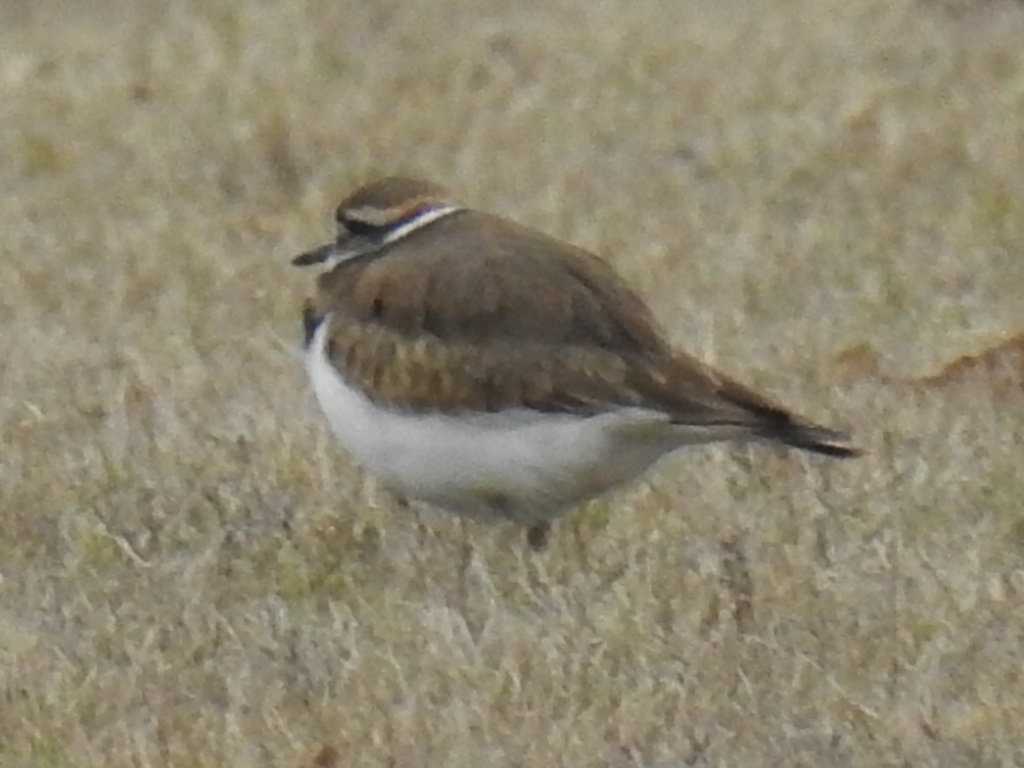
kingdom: Animalia
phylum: Chordata
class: Aves
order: Charadriiformes
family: Charadriidae
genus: Charadrius
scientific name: Charadrius vociferus
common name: Killdeer
